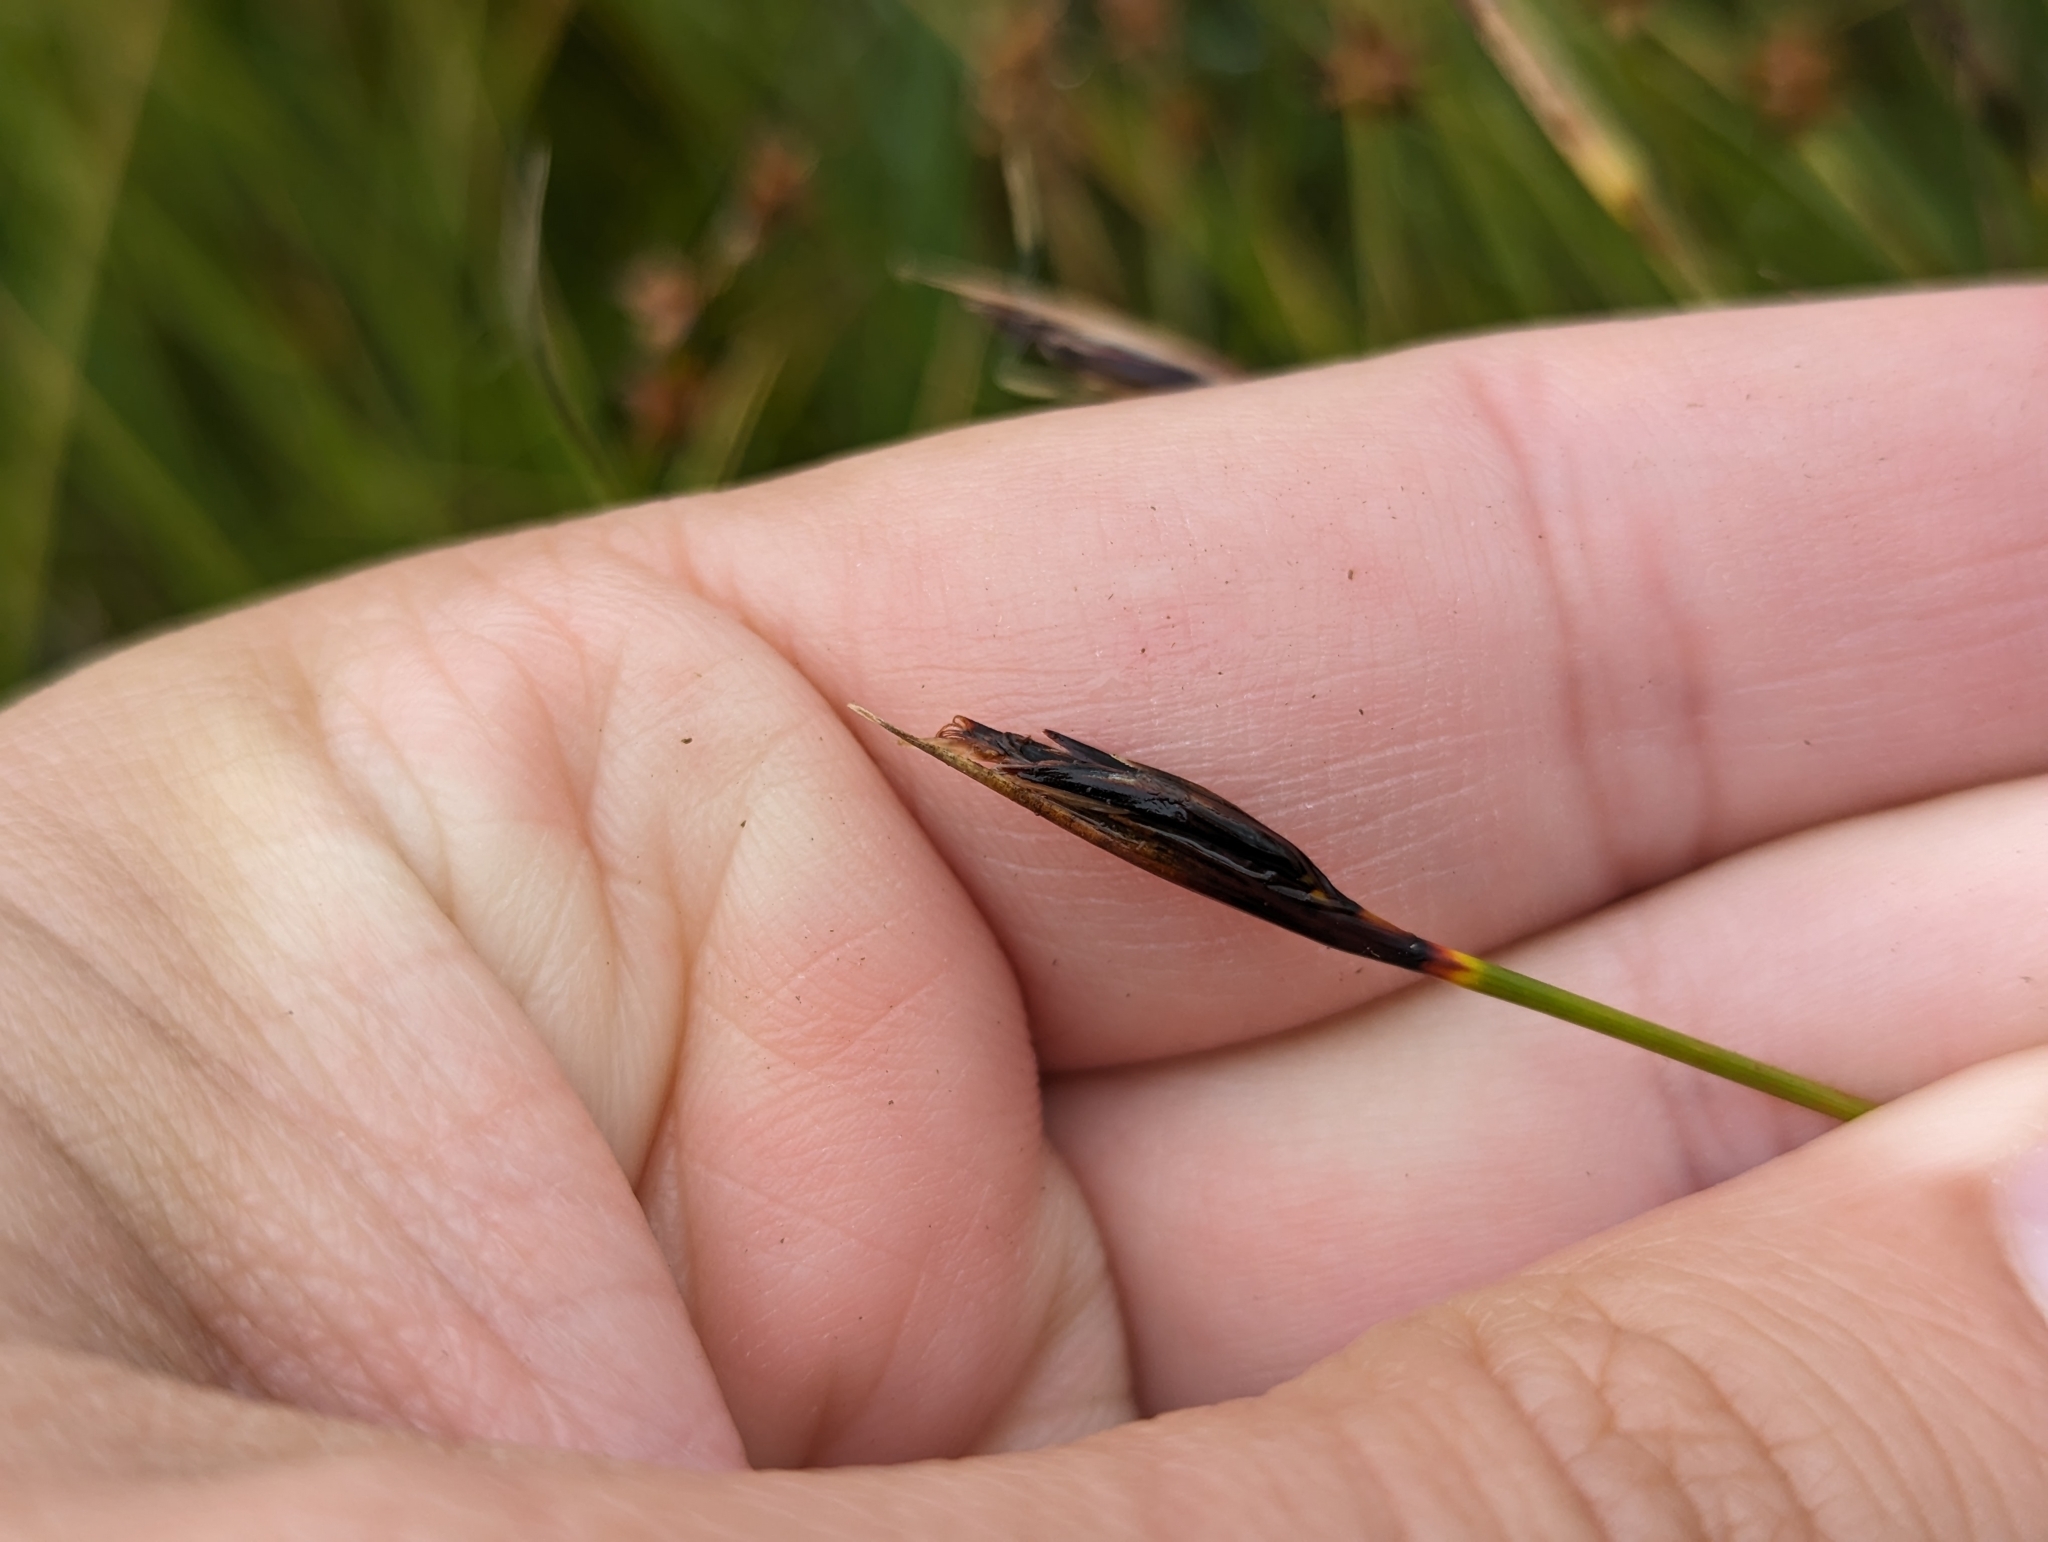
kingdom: Plantae
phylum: Tracheophyta
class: Liliopsida
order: Poales
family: Cyperaceae
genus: Schoenus
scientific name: Schoenus ferrugineus
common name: Brown bog-rush
